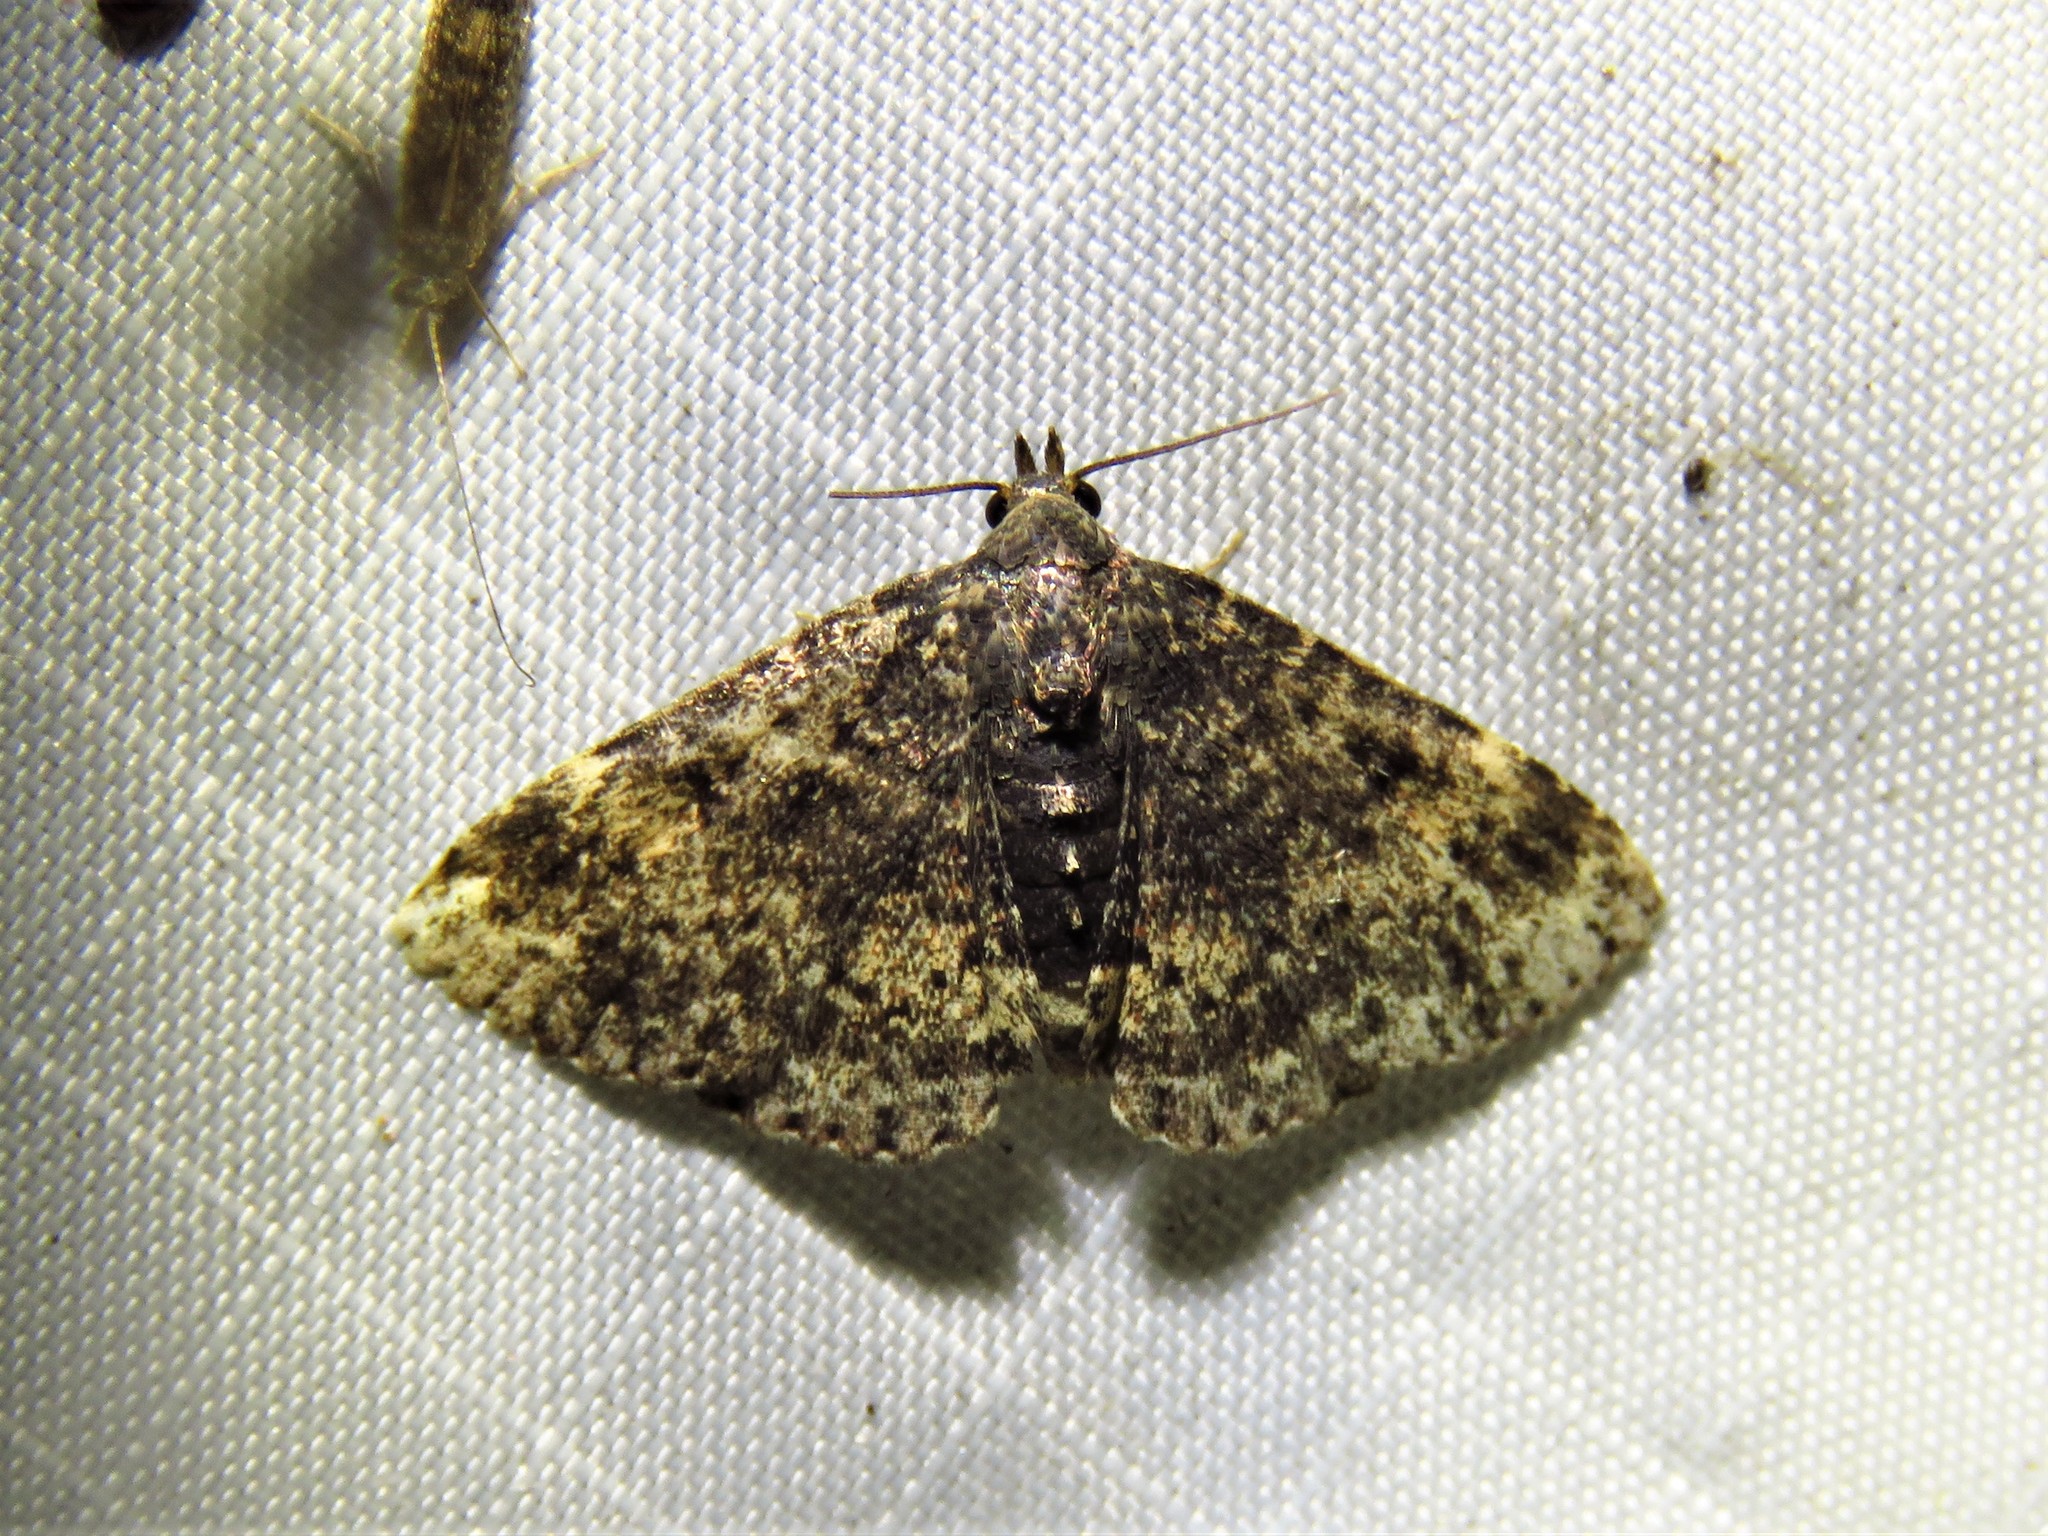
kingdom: Animalia
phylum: Arthropoda
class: Insecta
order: Lepidoptera
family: Erebidae
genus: Metalectra
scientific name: Metalectra diabolica
